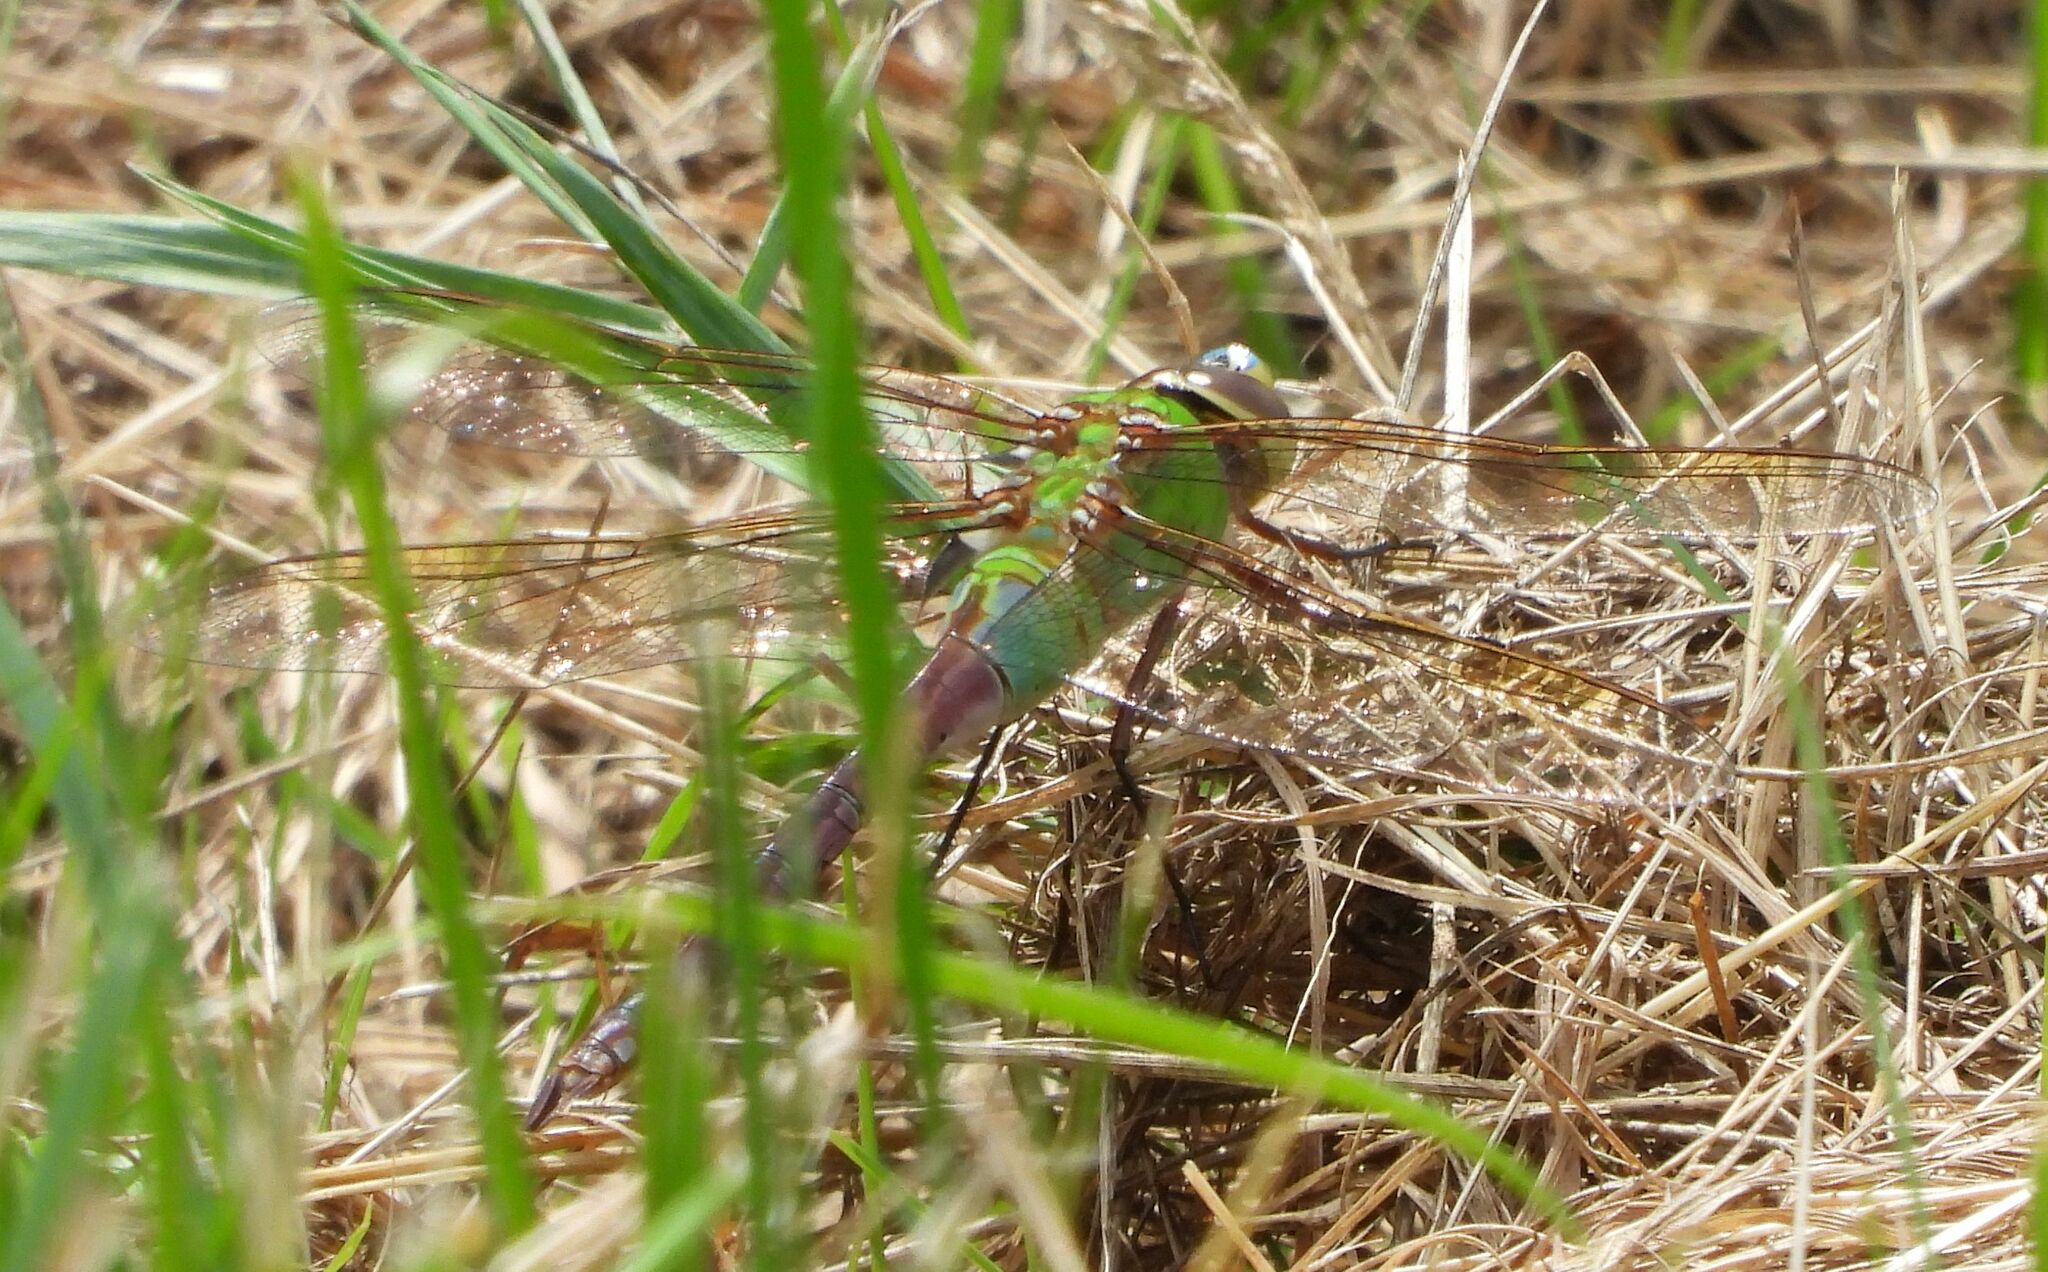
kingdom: Animalia
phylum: Arthropoda
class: Insecta
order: Odonata
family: Aeshnidae
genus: Anax
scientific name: Anax junius
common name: Common green darner
